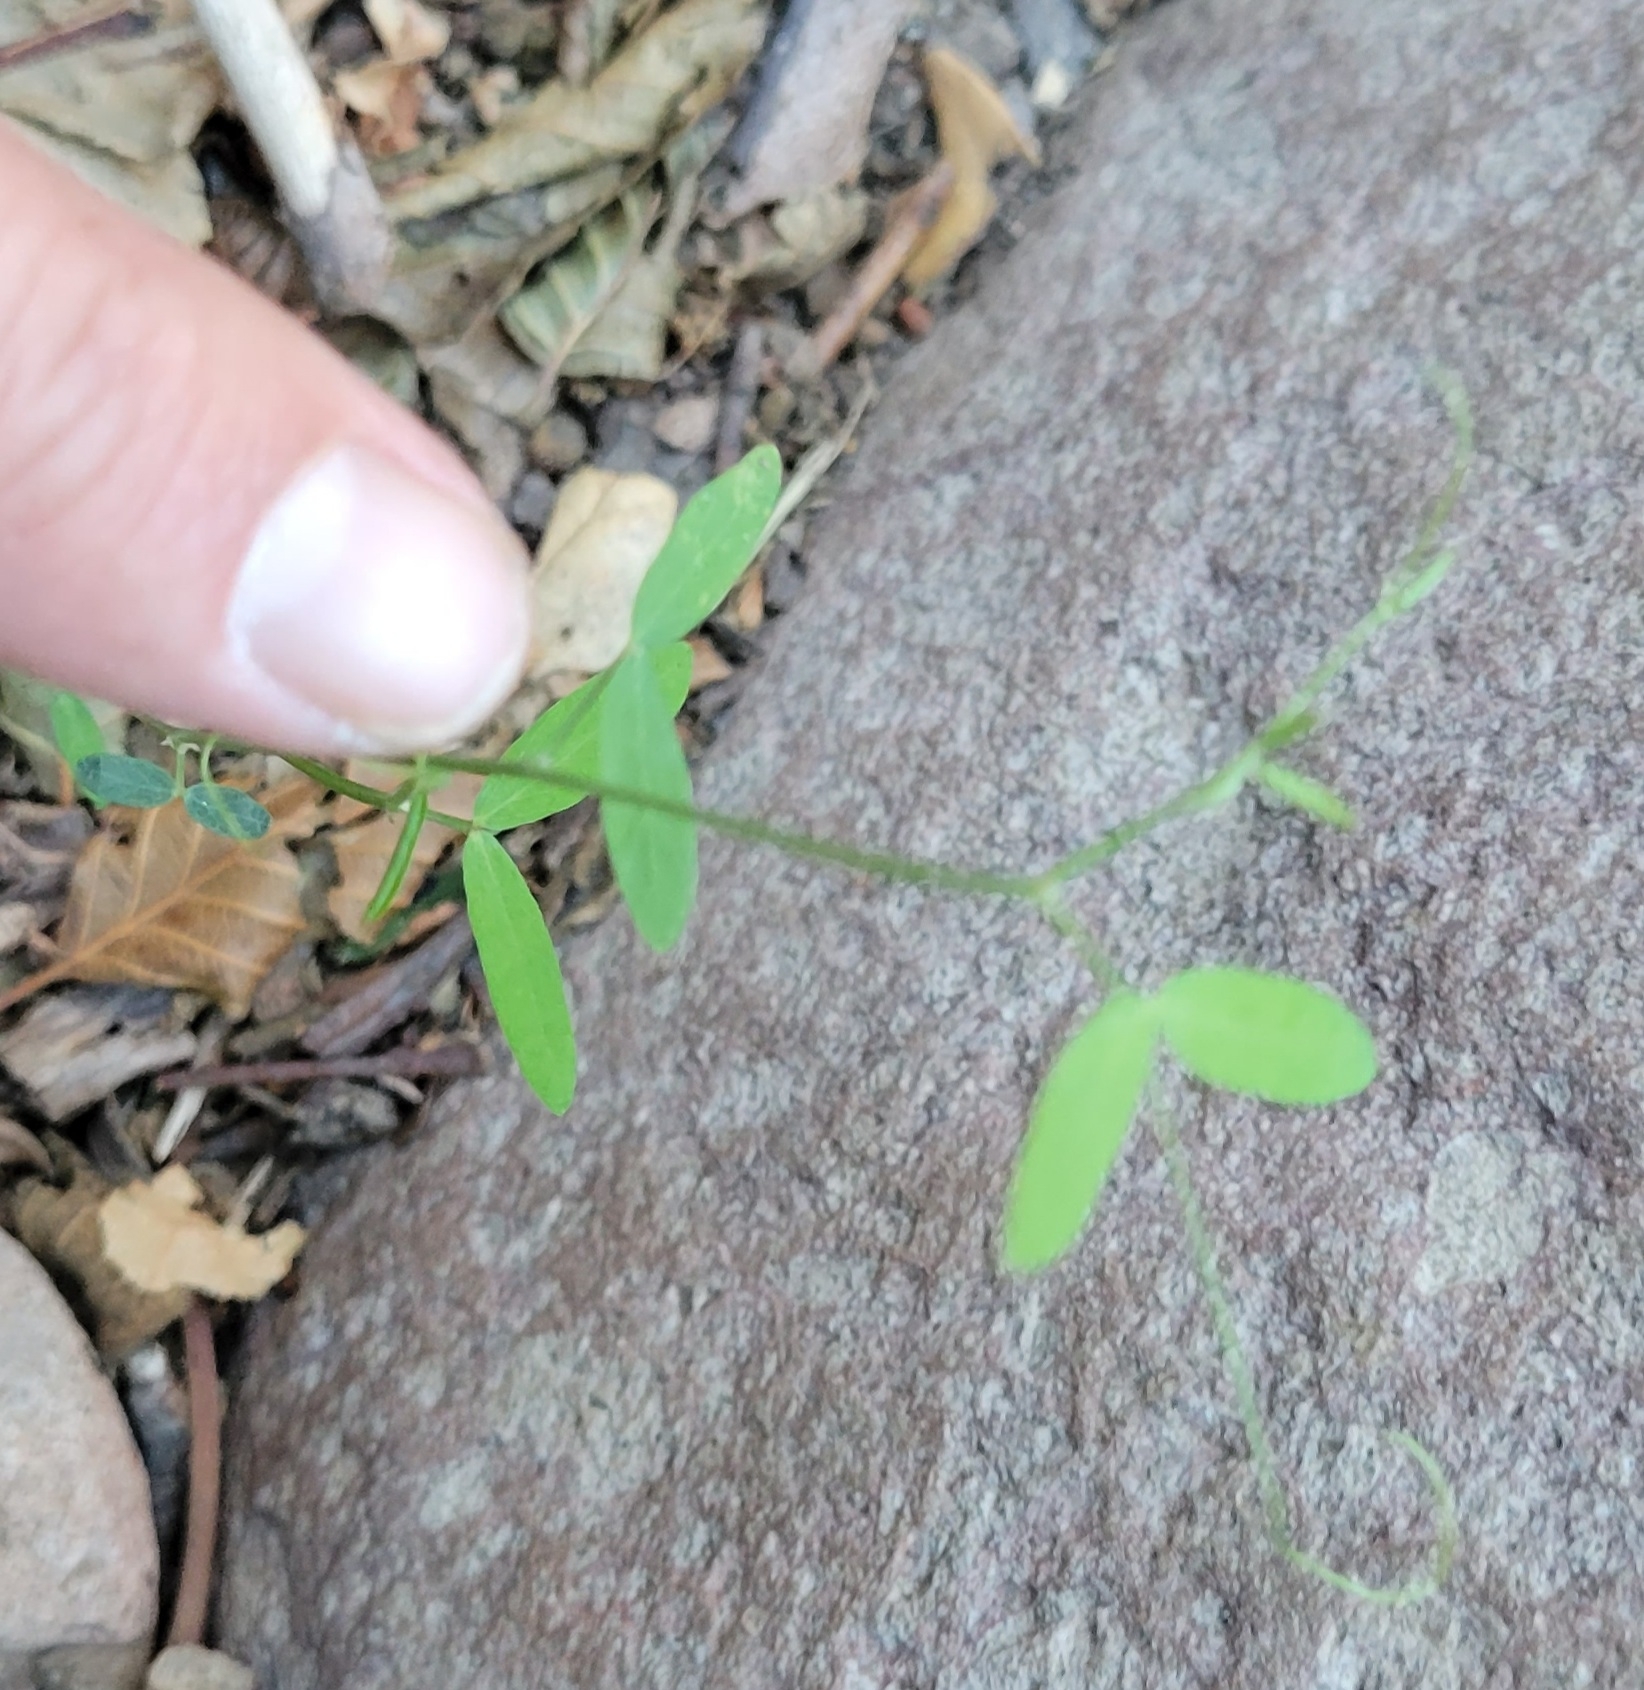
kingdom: Plantae
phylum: Tracheophyta
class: Magnoliopsida
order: Fabales
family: Fabaceae
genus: Melilotus
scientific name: Melilotus albus
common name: White melilot
